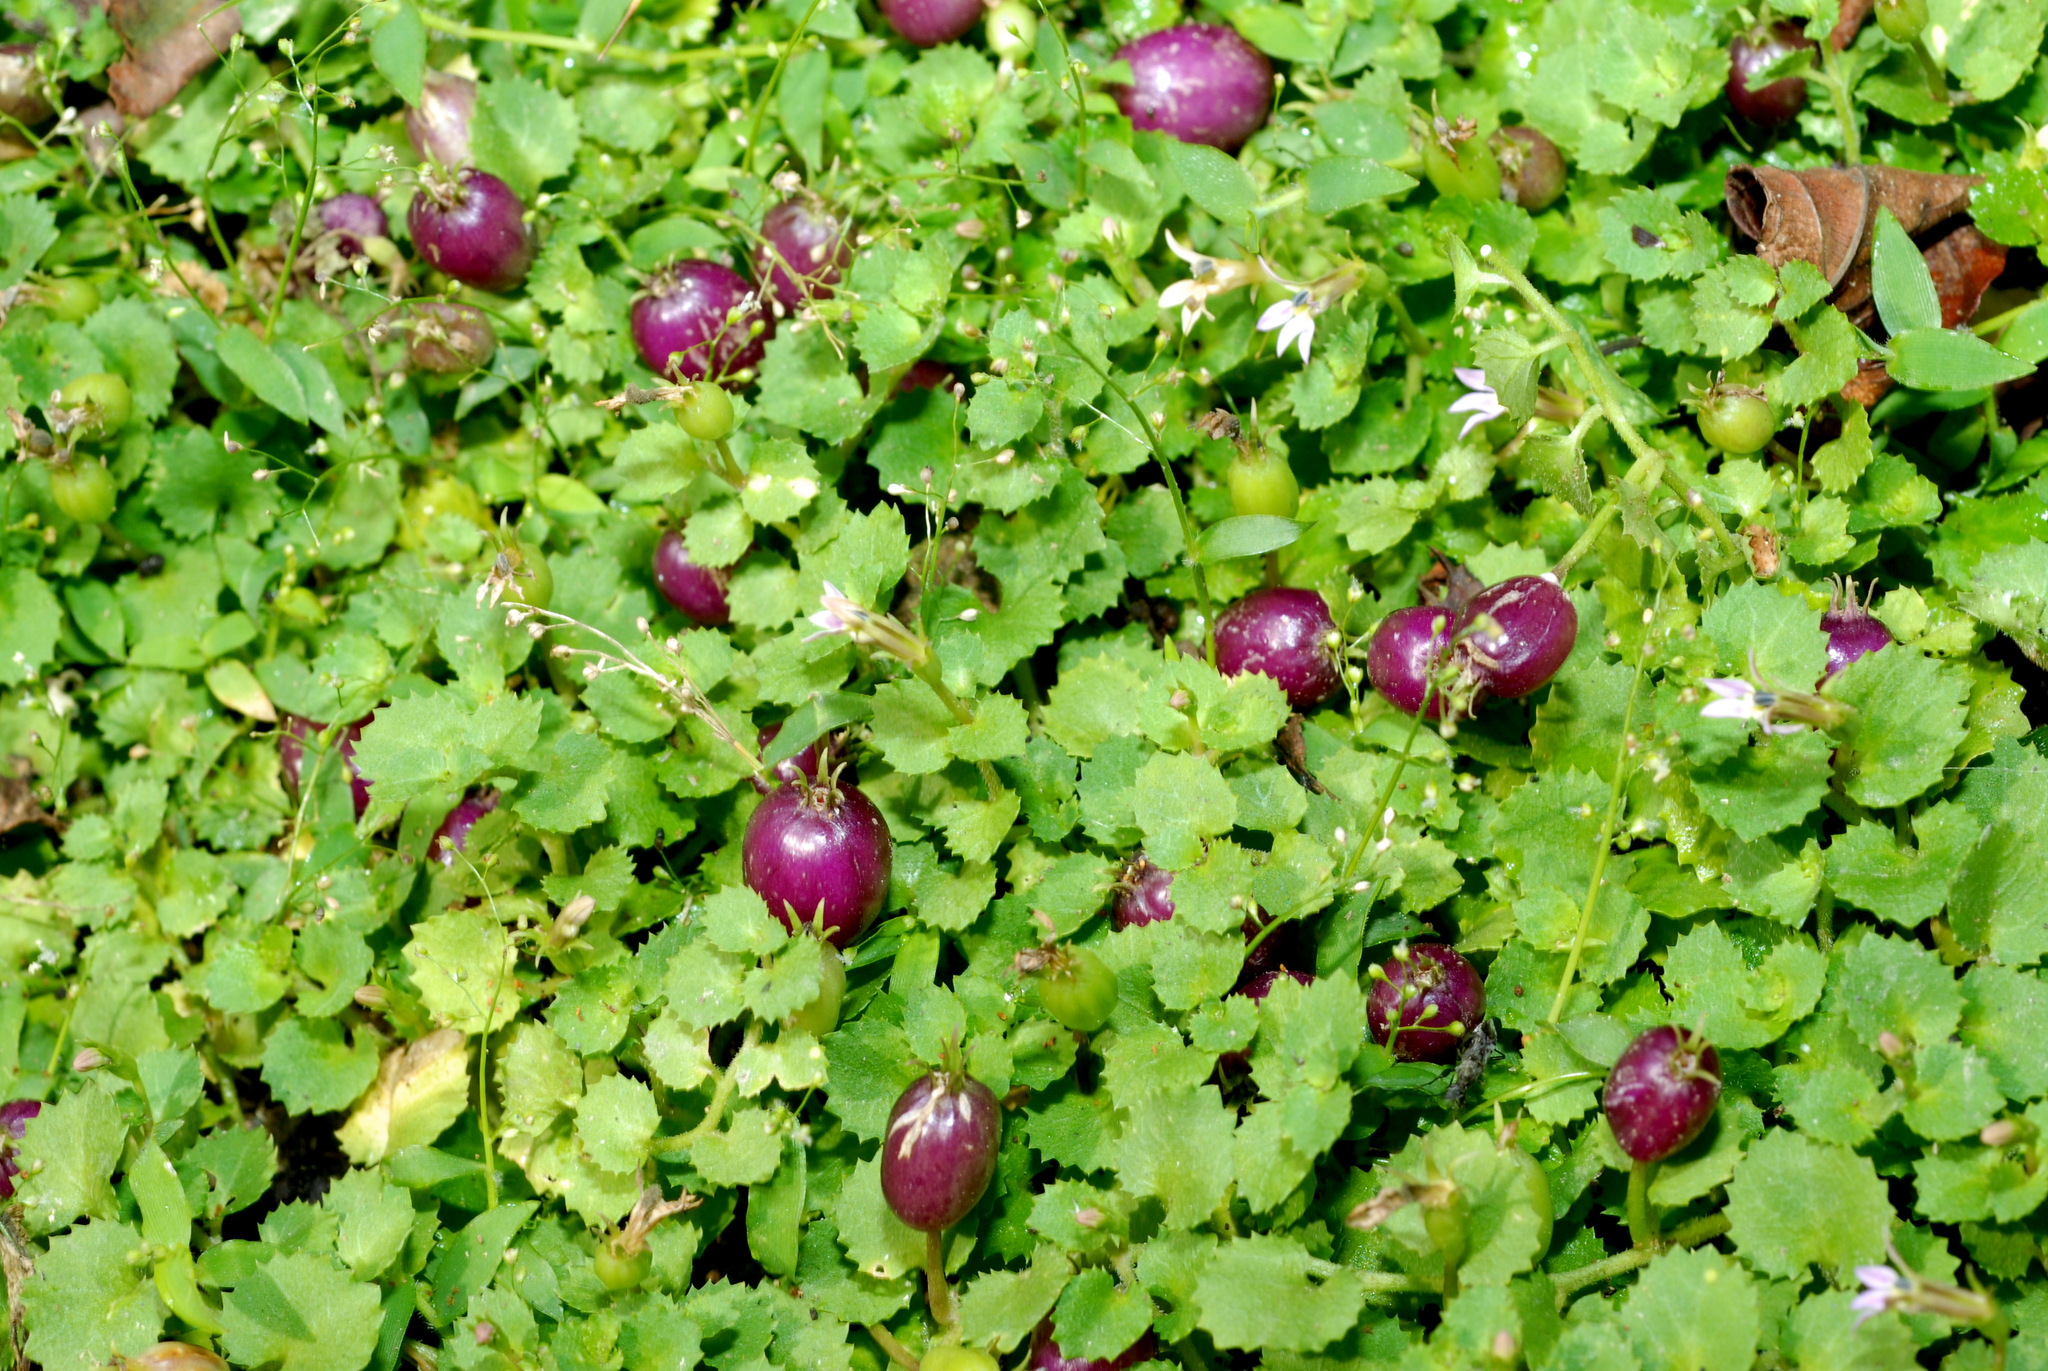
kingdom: Plantae
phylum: Tracheophyta
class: Magnoliopsida
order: Asterales
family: Campanulaceae
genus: Lobelia
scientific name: Lobelia nummularia
